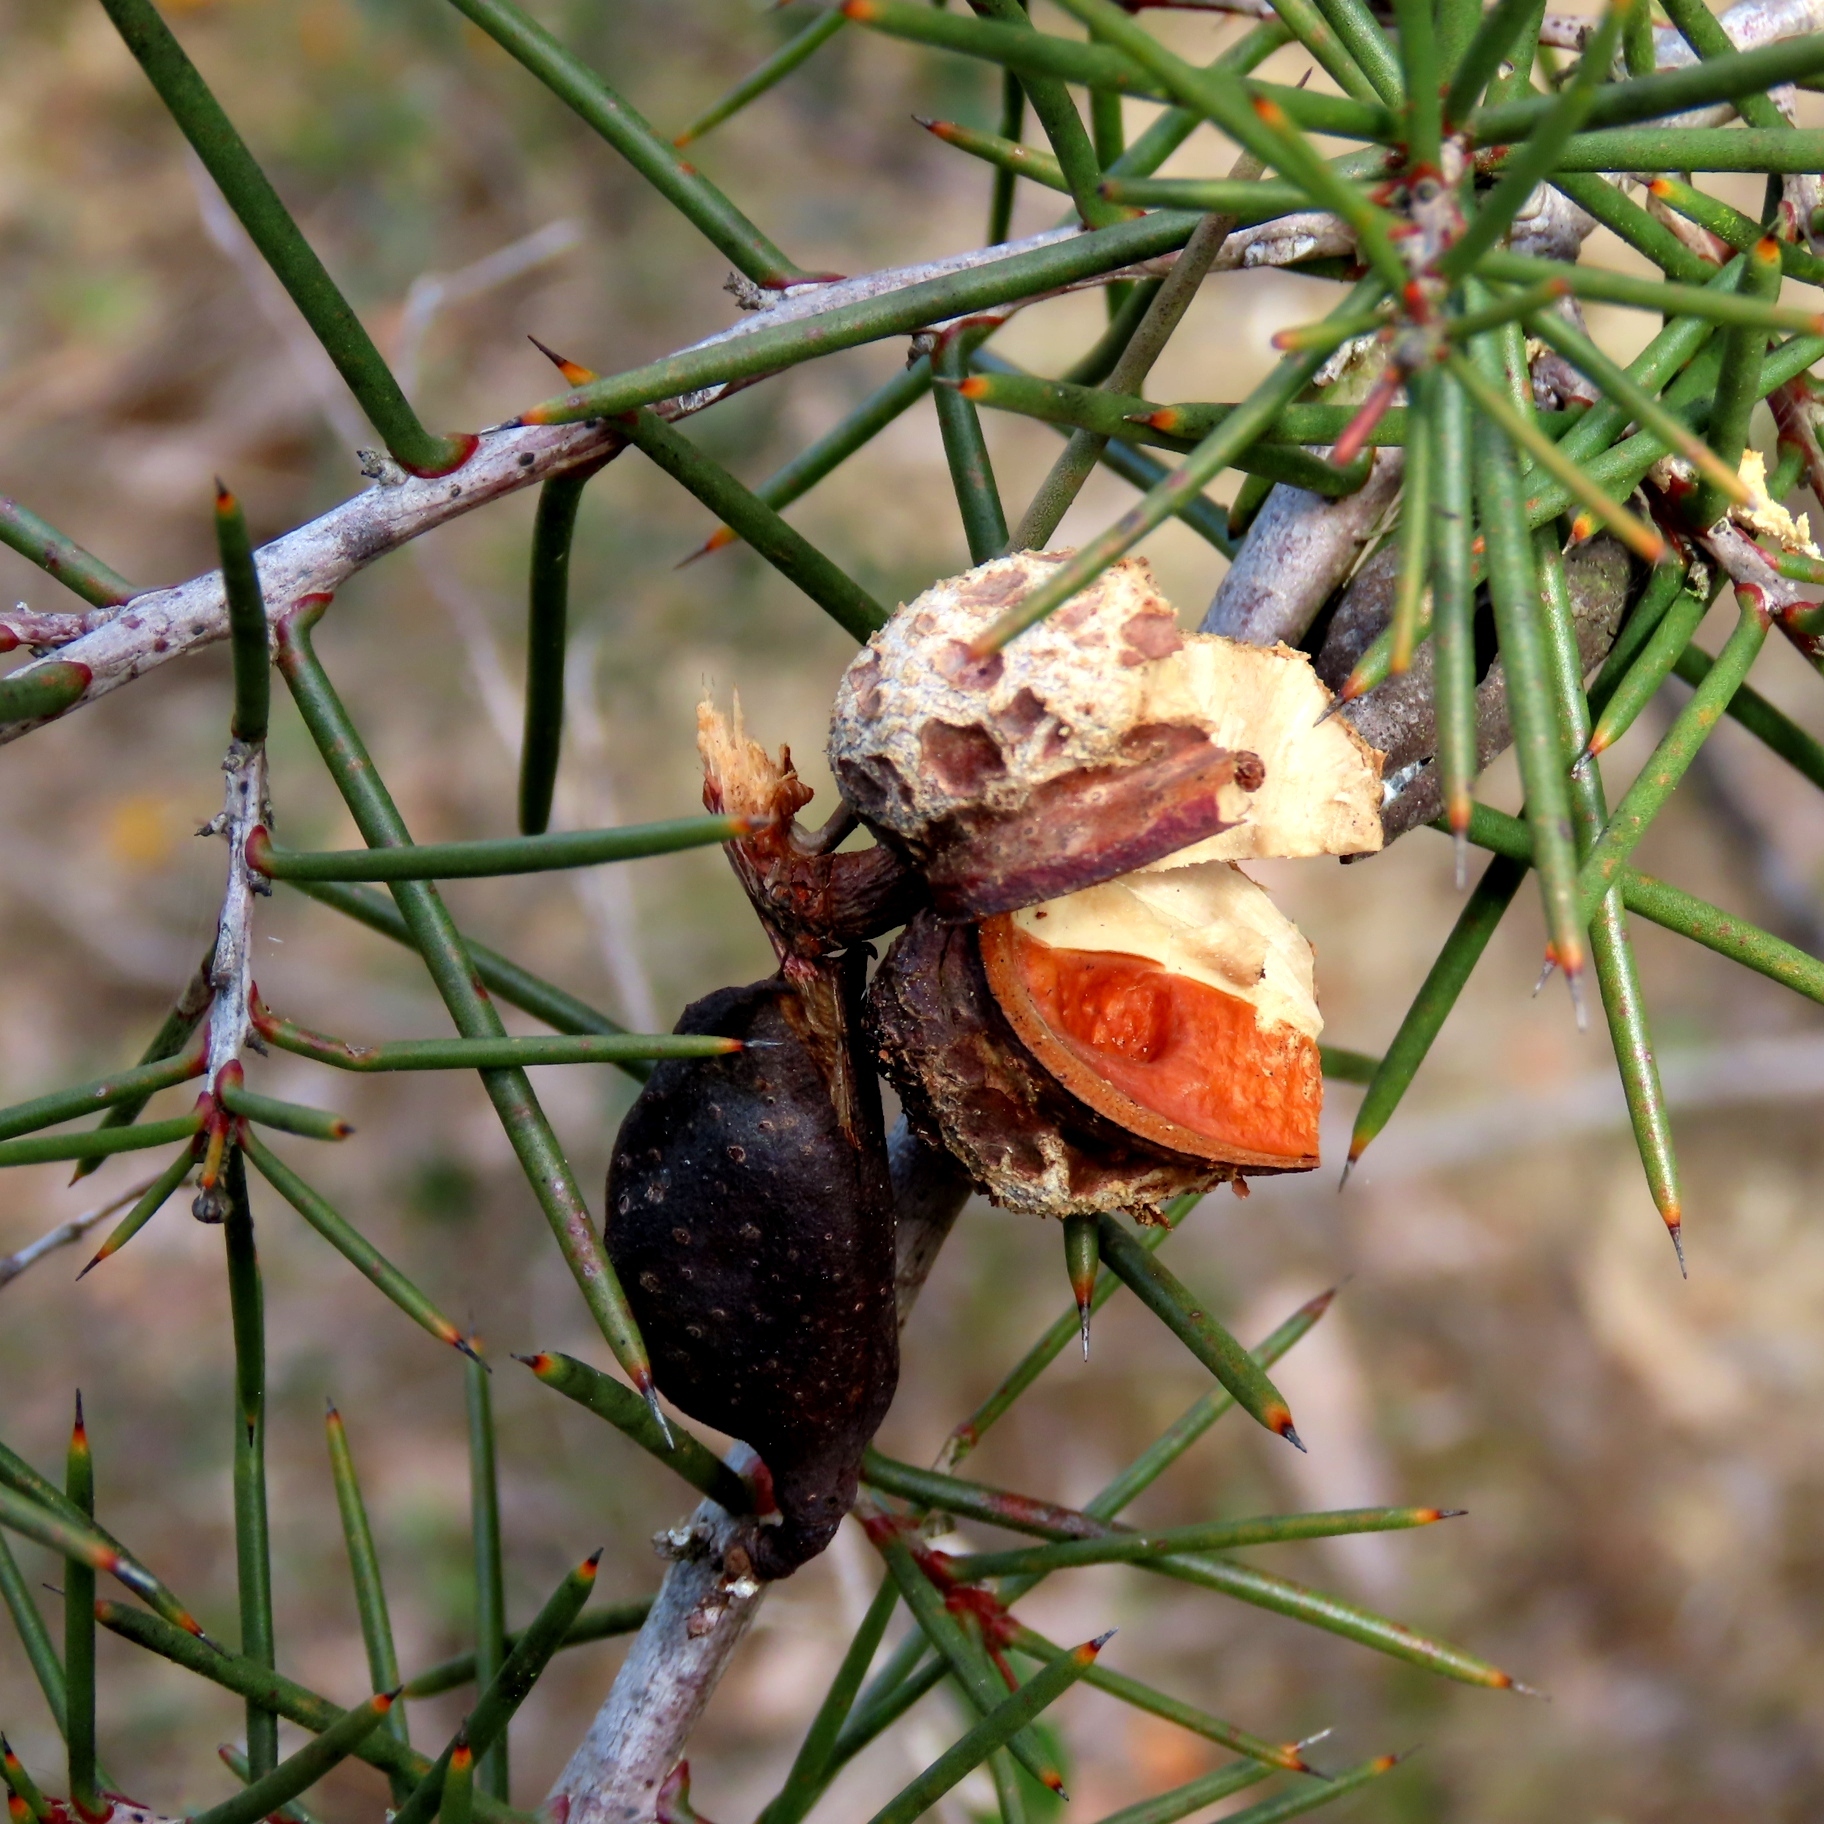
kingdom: Plantae
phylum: Tracheophyta
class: Magnoliopsida
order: Proteales
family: Proteaceae
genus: Hakea
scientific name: Hakea decurrens
